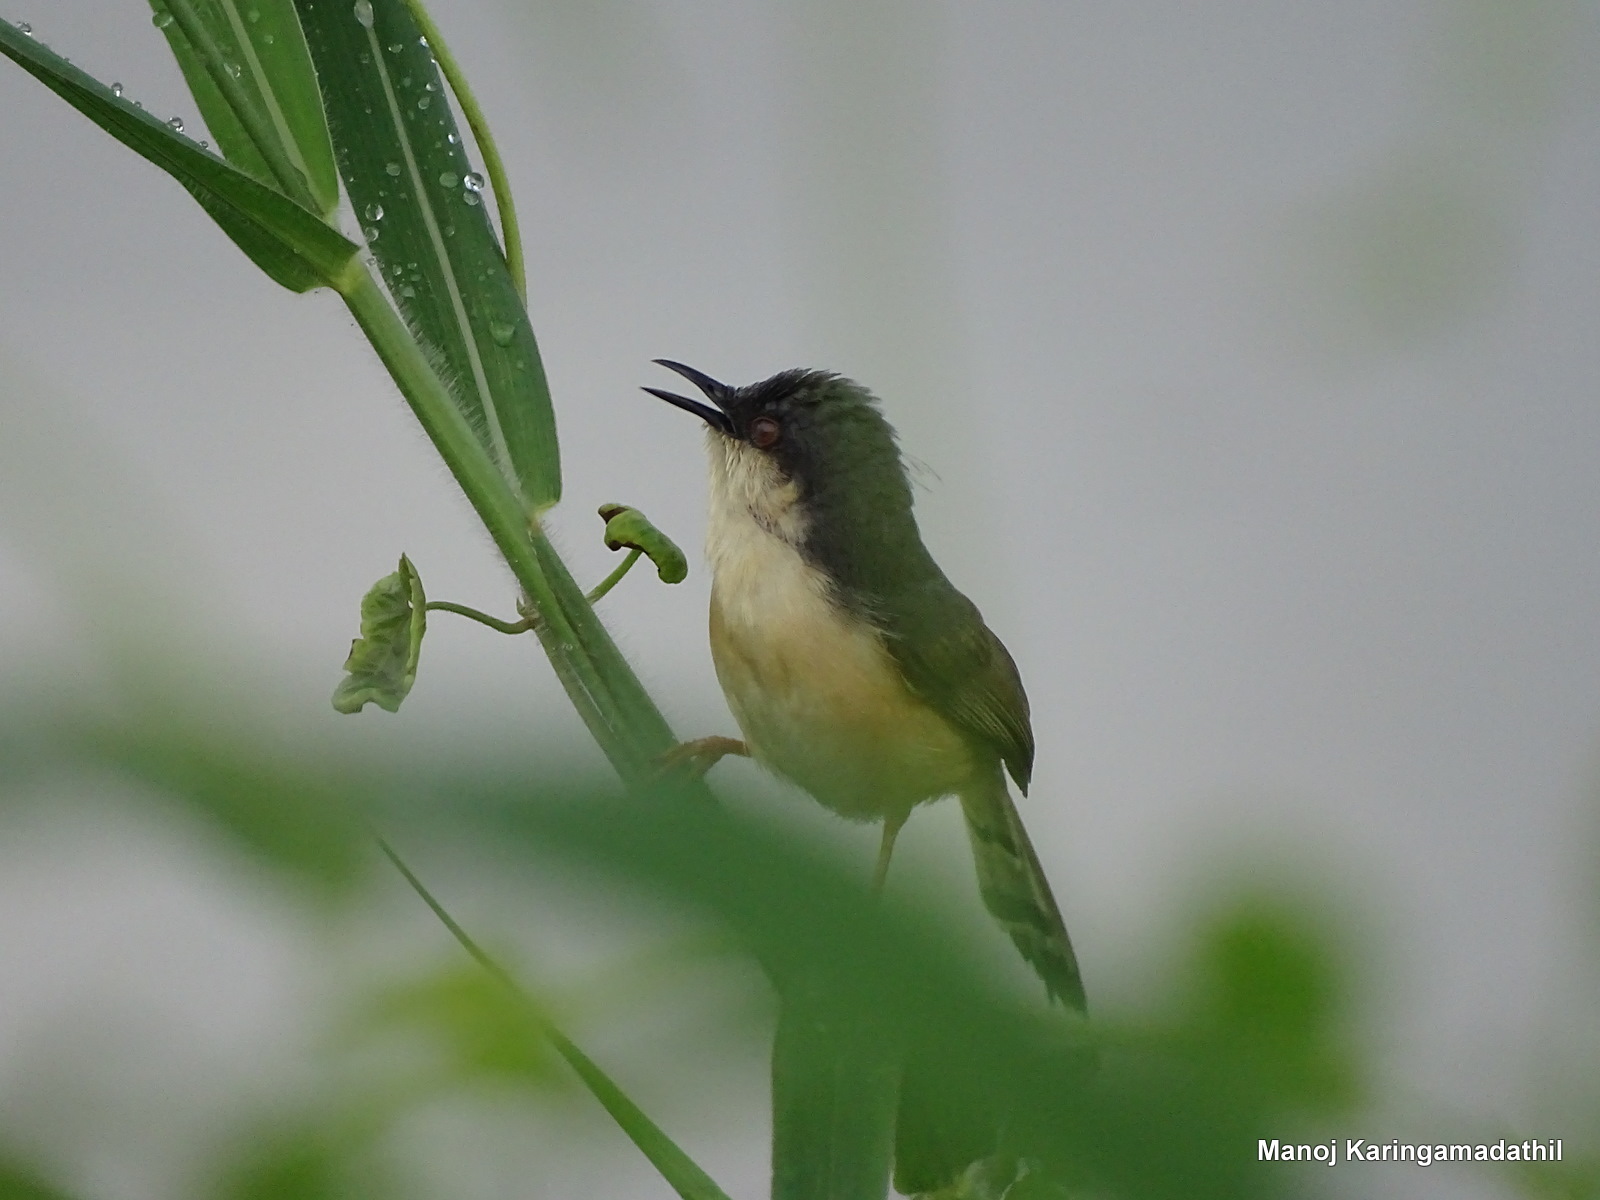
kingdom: Animalia
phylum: Chordata
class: Aves
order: Passeriformes
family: Cisticolidae
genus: Prinia
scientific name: Prinia socialis
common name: Ashy prinia
